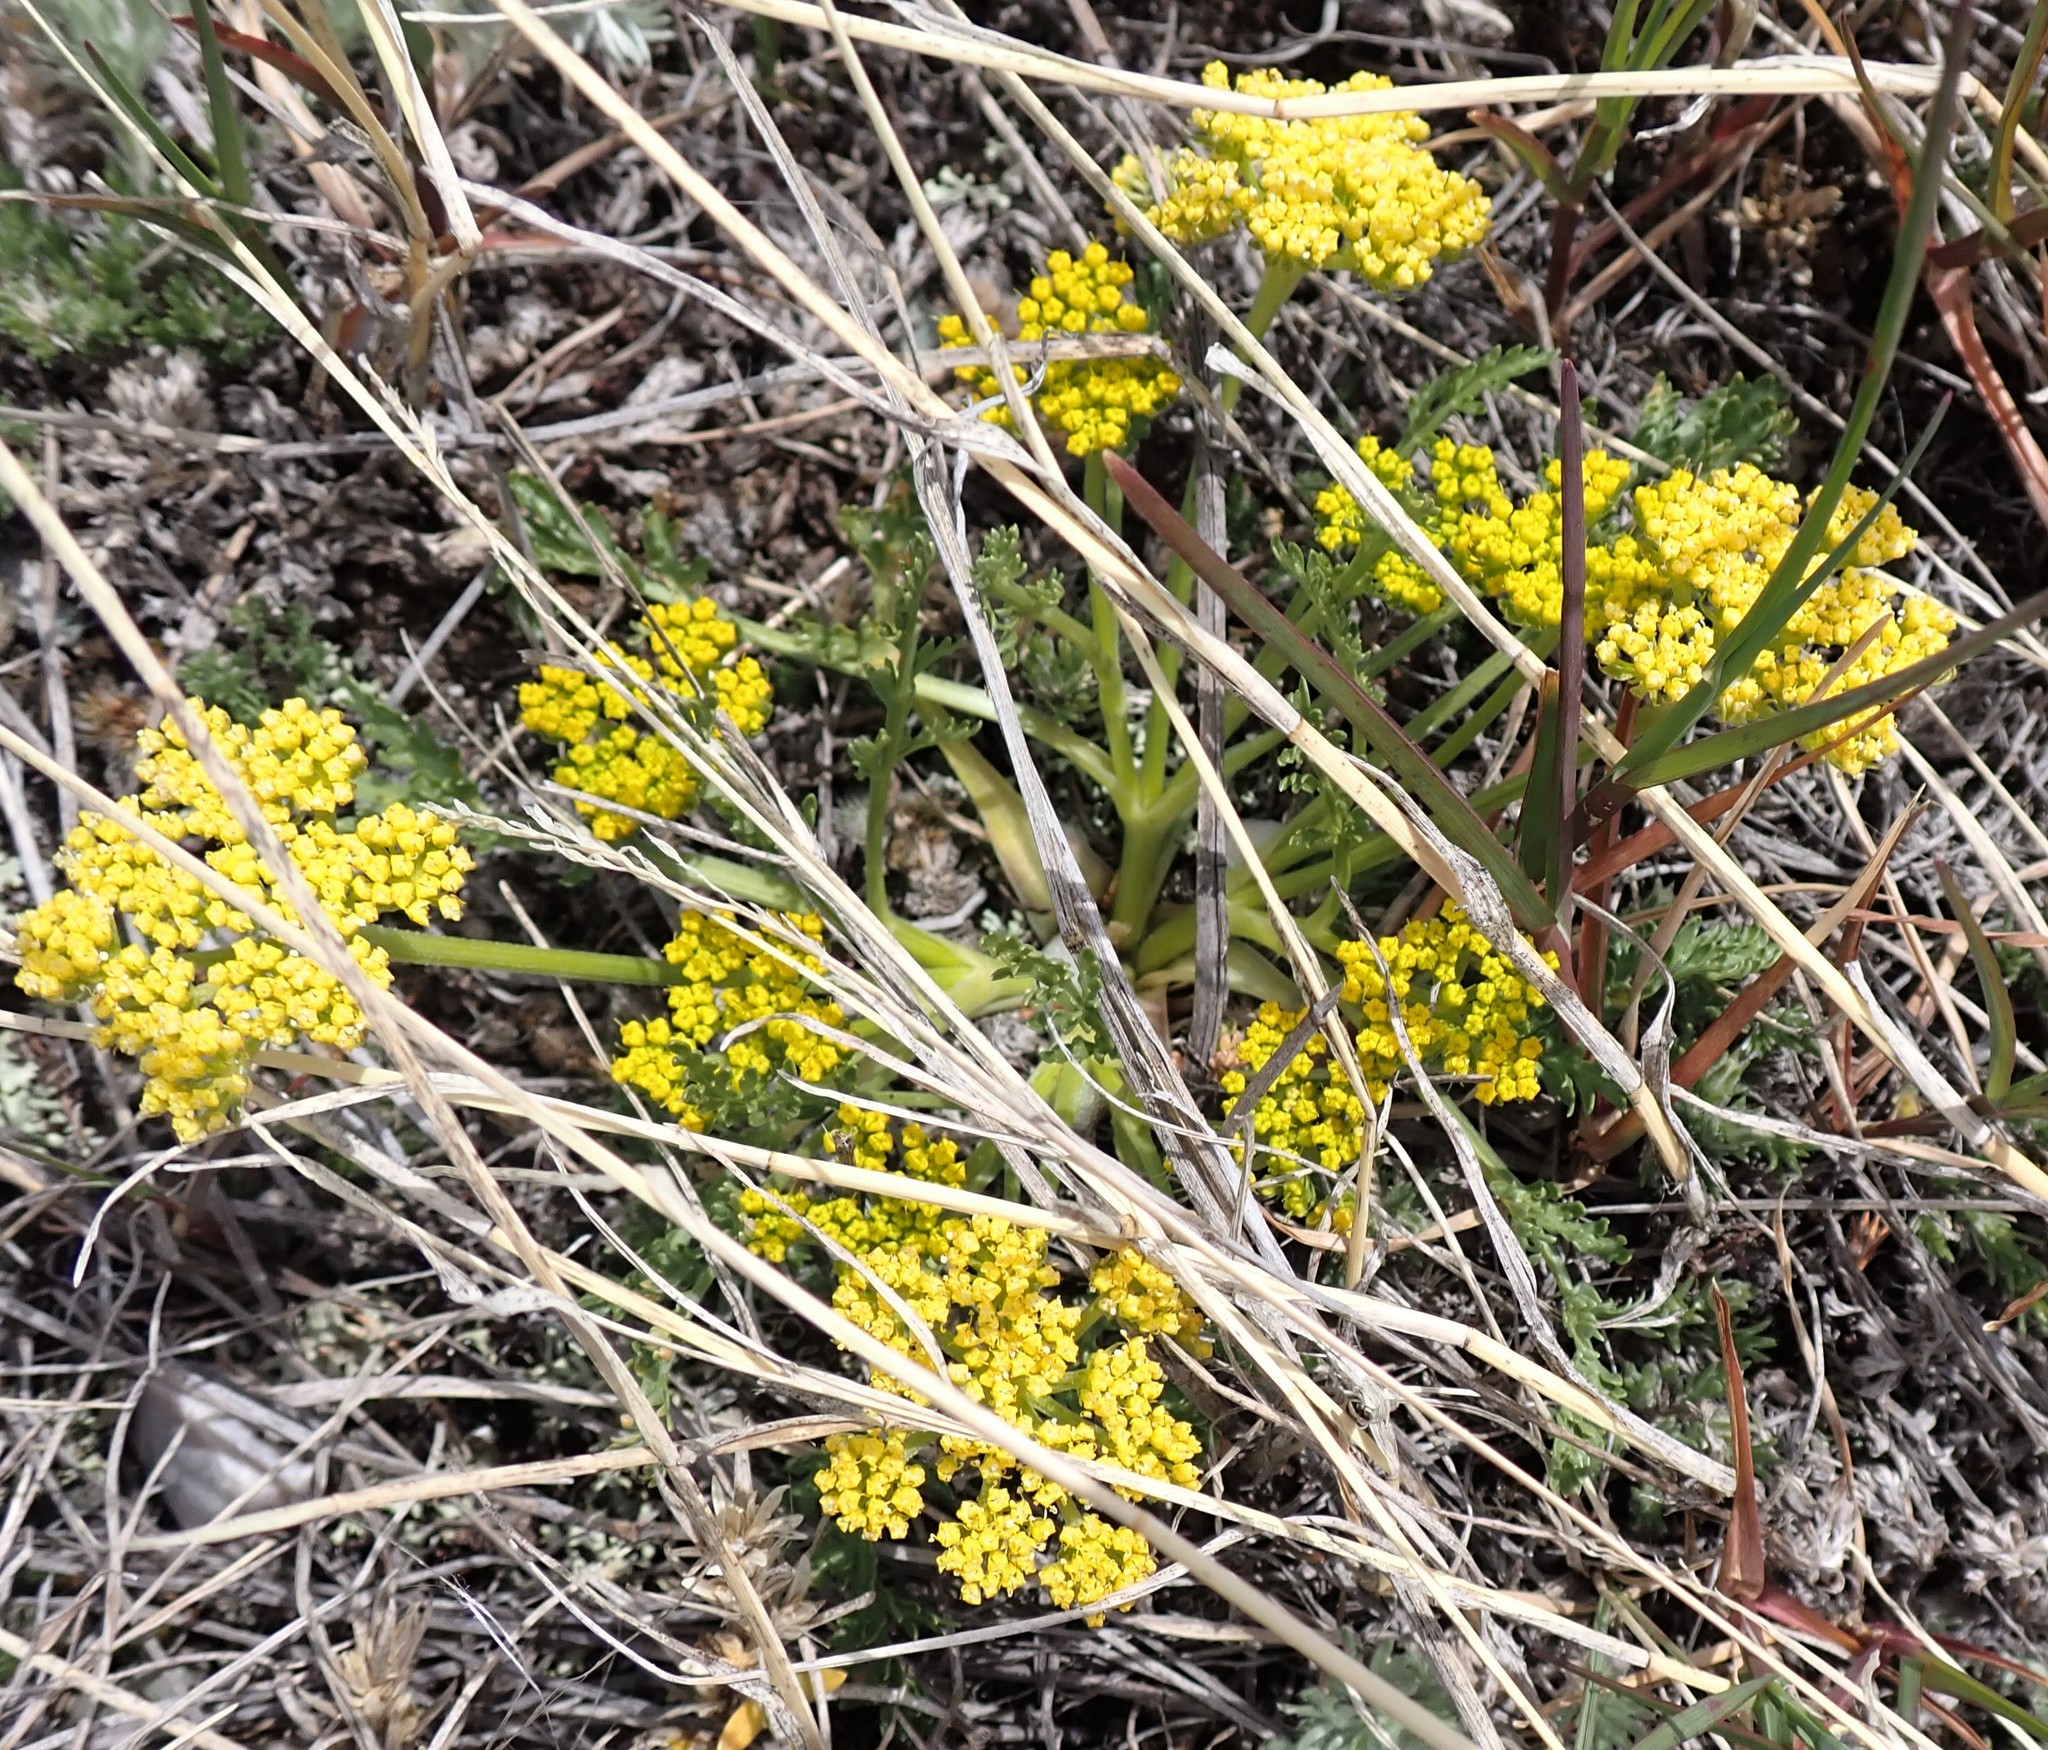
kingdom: Plantae
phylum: Tracheophyta
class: Magnoliopsida
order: Apiales
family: Apiaceae
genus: Musineon
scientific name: Musineon divaricatum
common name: Plains musineon
